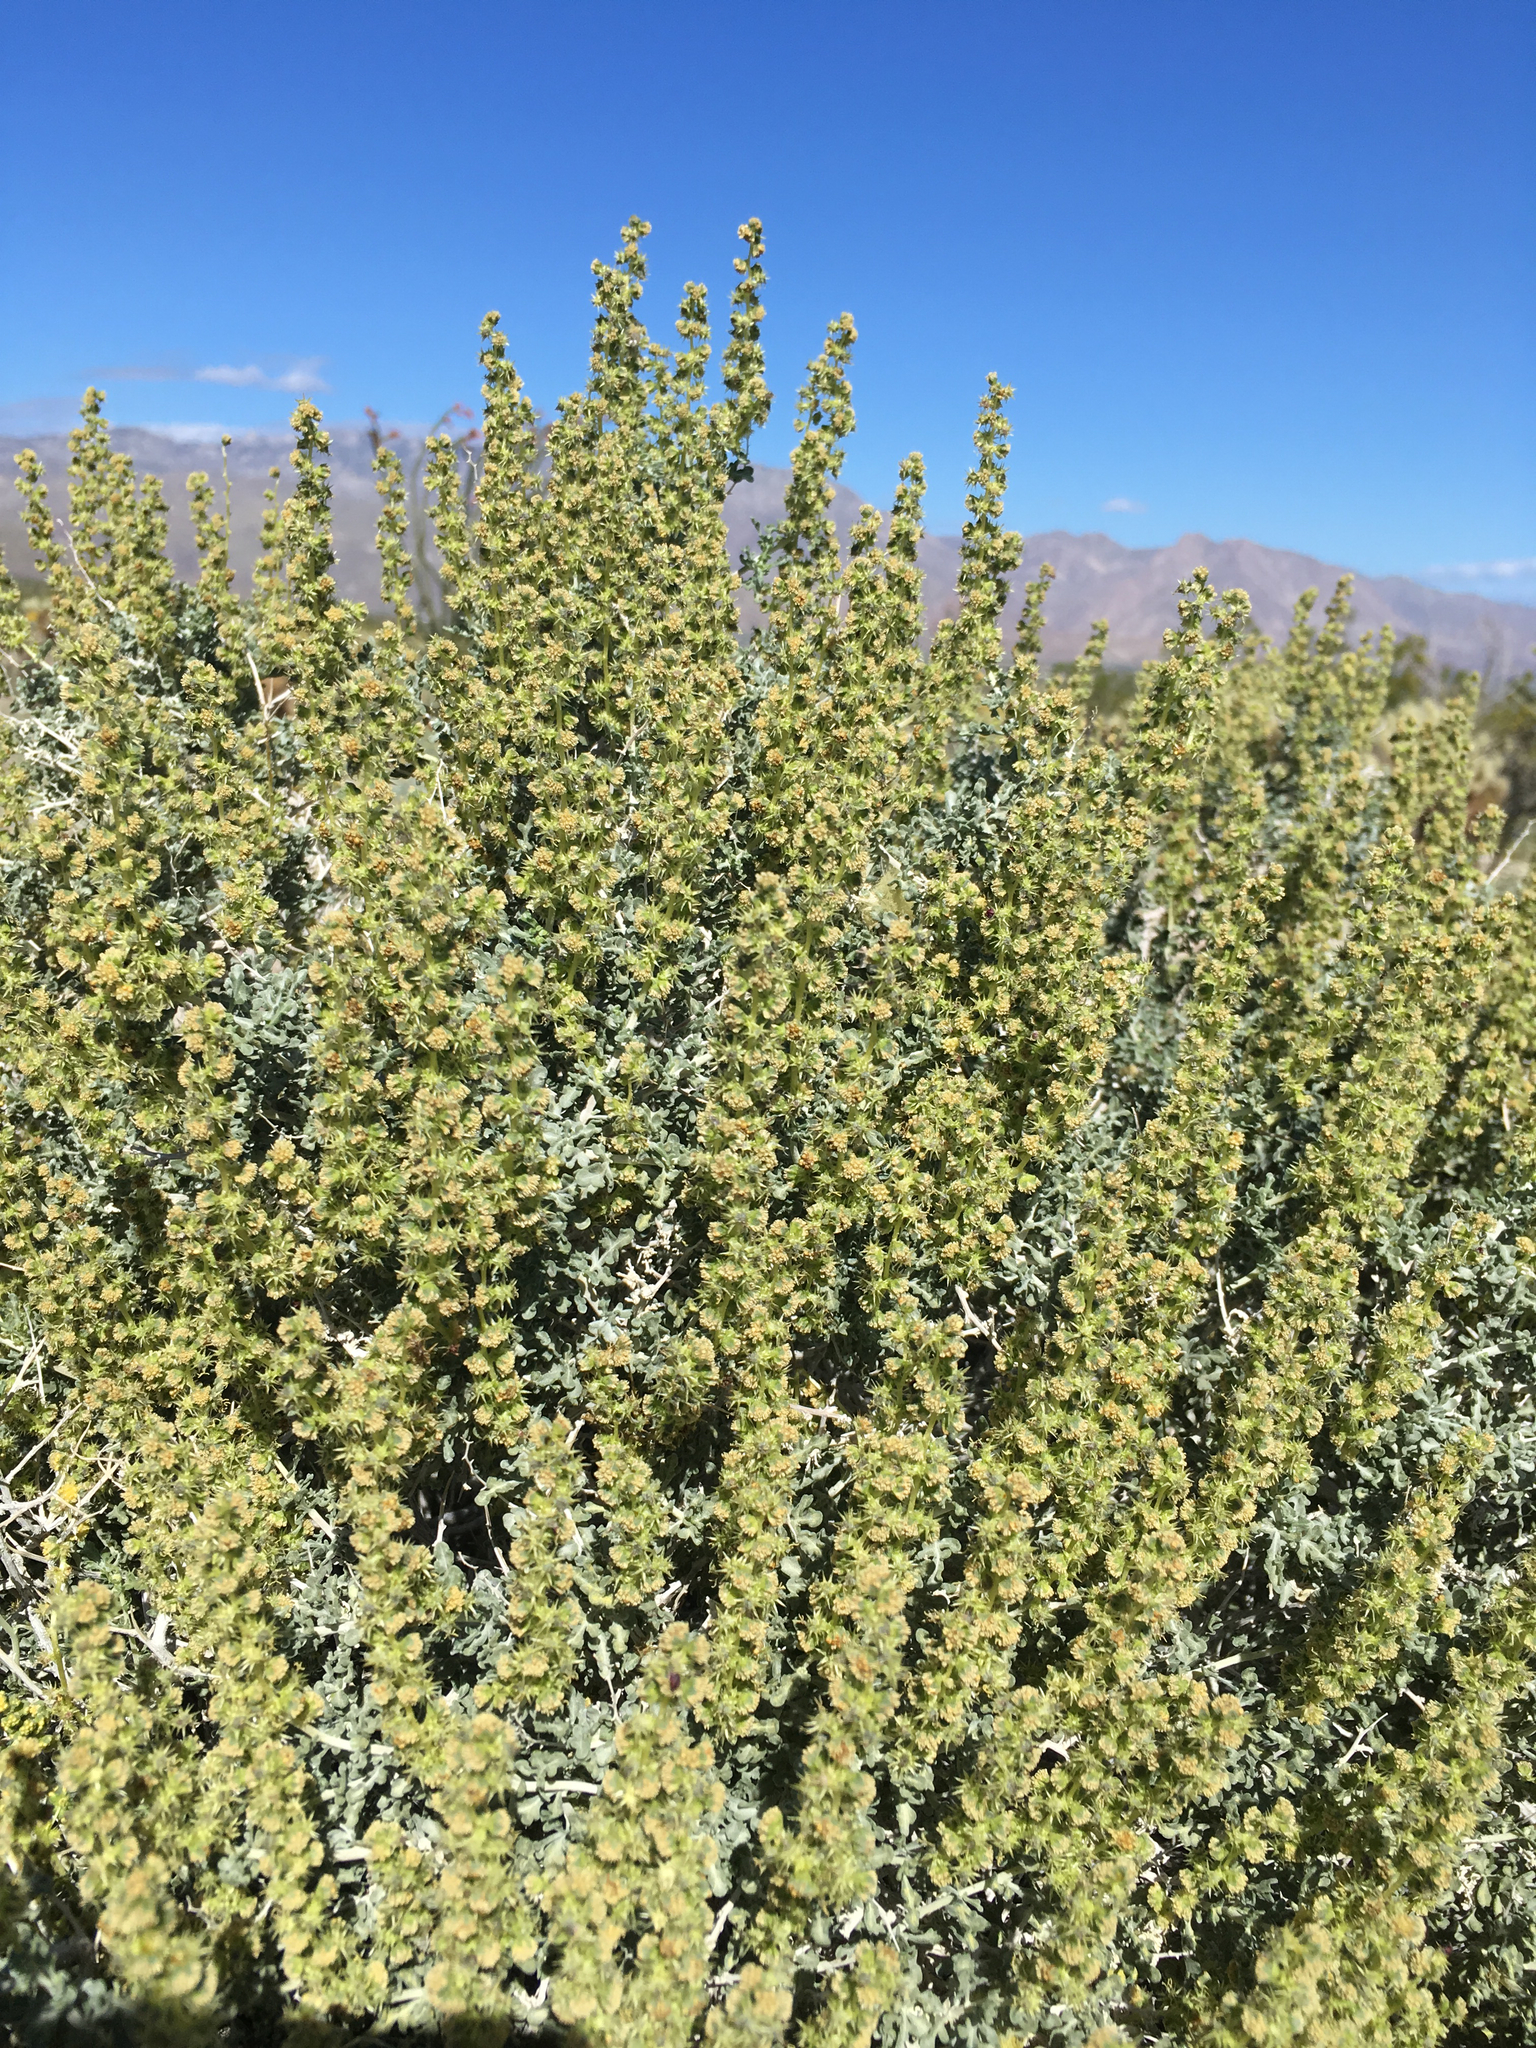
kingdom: Plantae
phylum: Tracheophyta
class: Magnoliopsida
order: Asterales
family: Asteraceae
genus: Ambrosia
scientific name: Ambrosia dumosa
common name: Bur-sage
